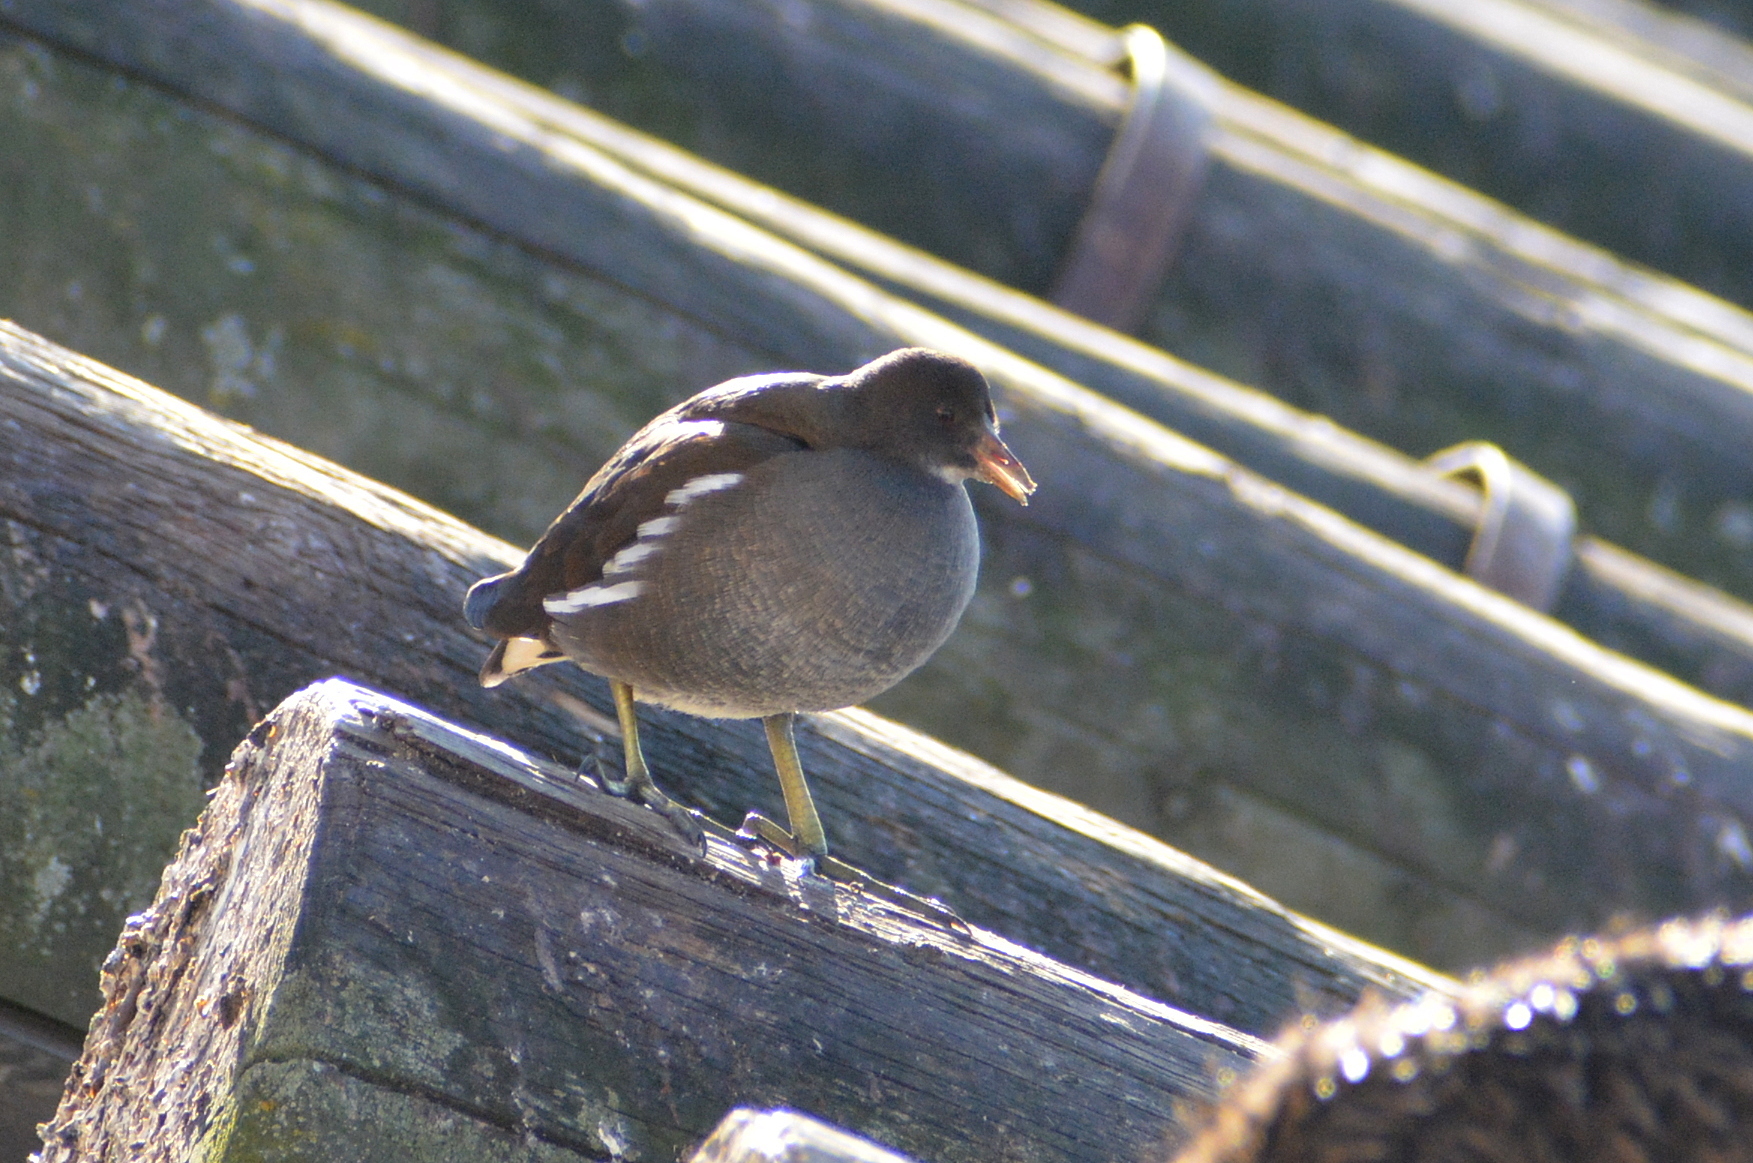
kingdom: Animalia
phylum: Chordata
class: Aves
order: Gruiformes
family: Rallidae
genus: Gallinula
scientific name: Gallinula chloropus
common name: Common moorhen
